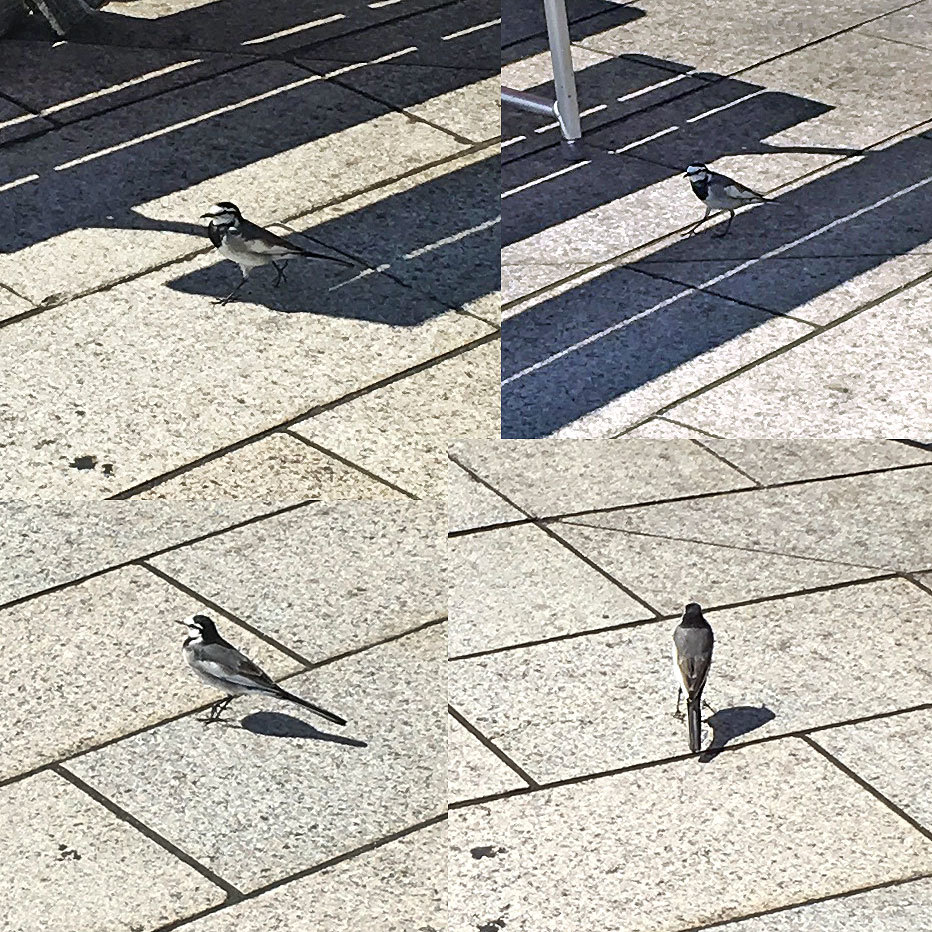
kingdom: Animalia
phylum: Chordata
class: Aves
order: Passeriformes
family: Motacillidae
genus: Motacilla
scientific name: Motacilla alba
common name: White wagtail
